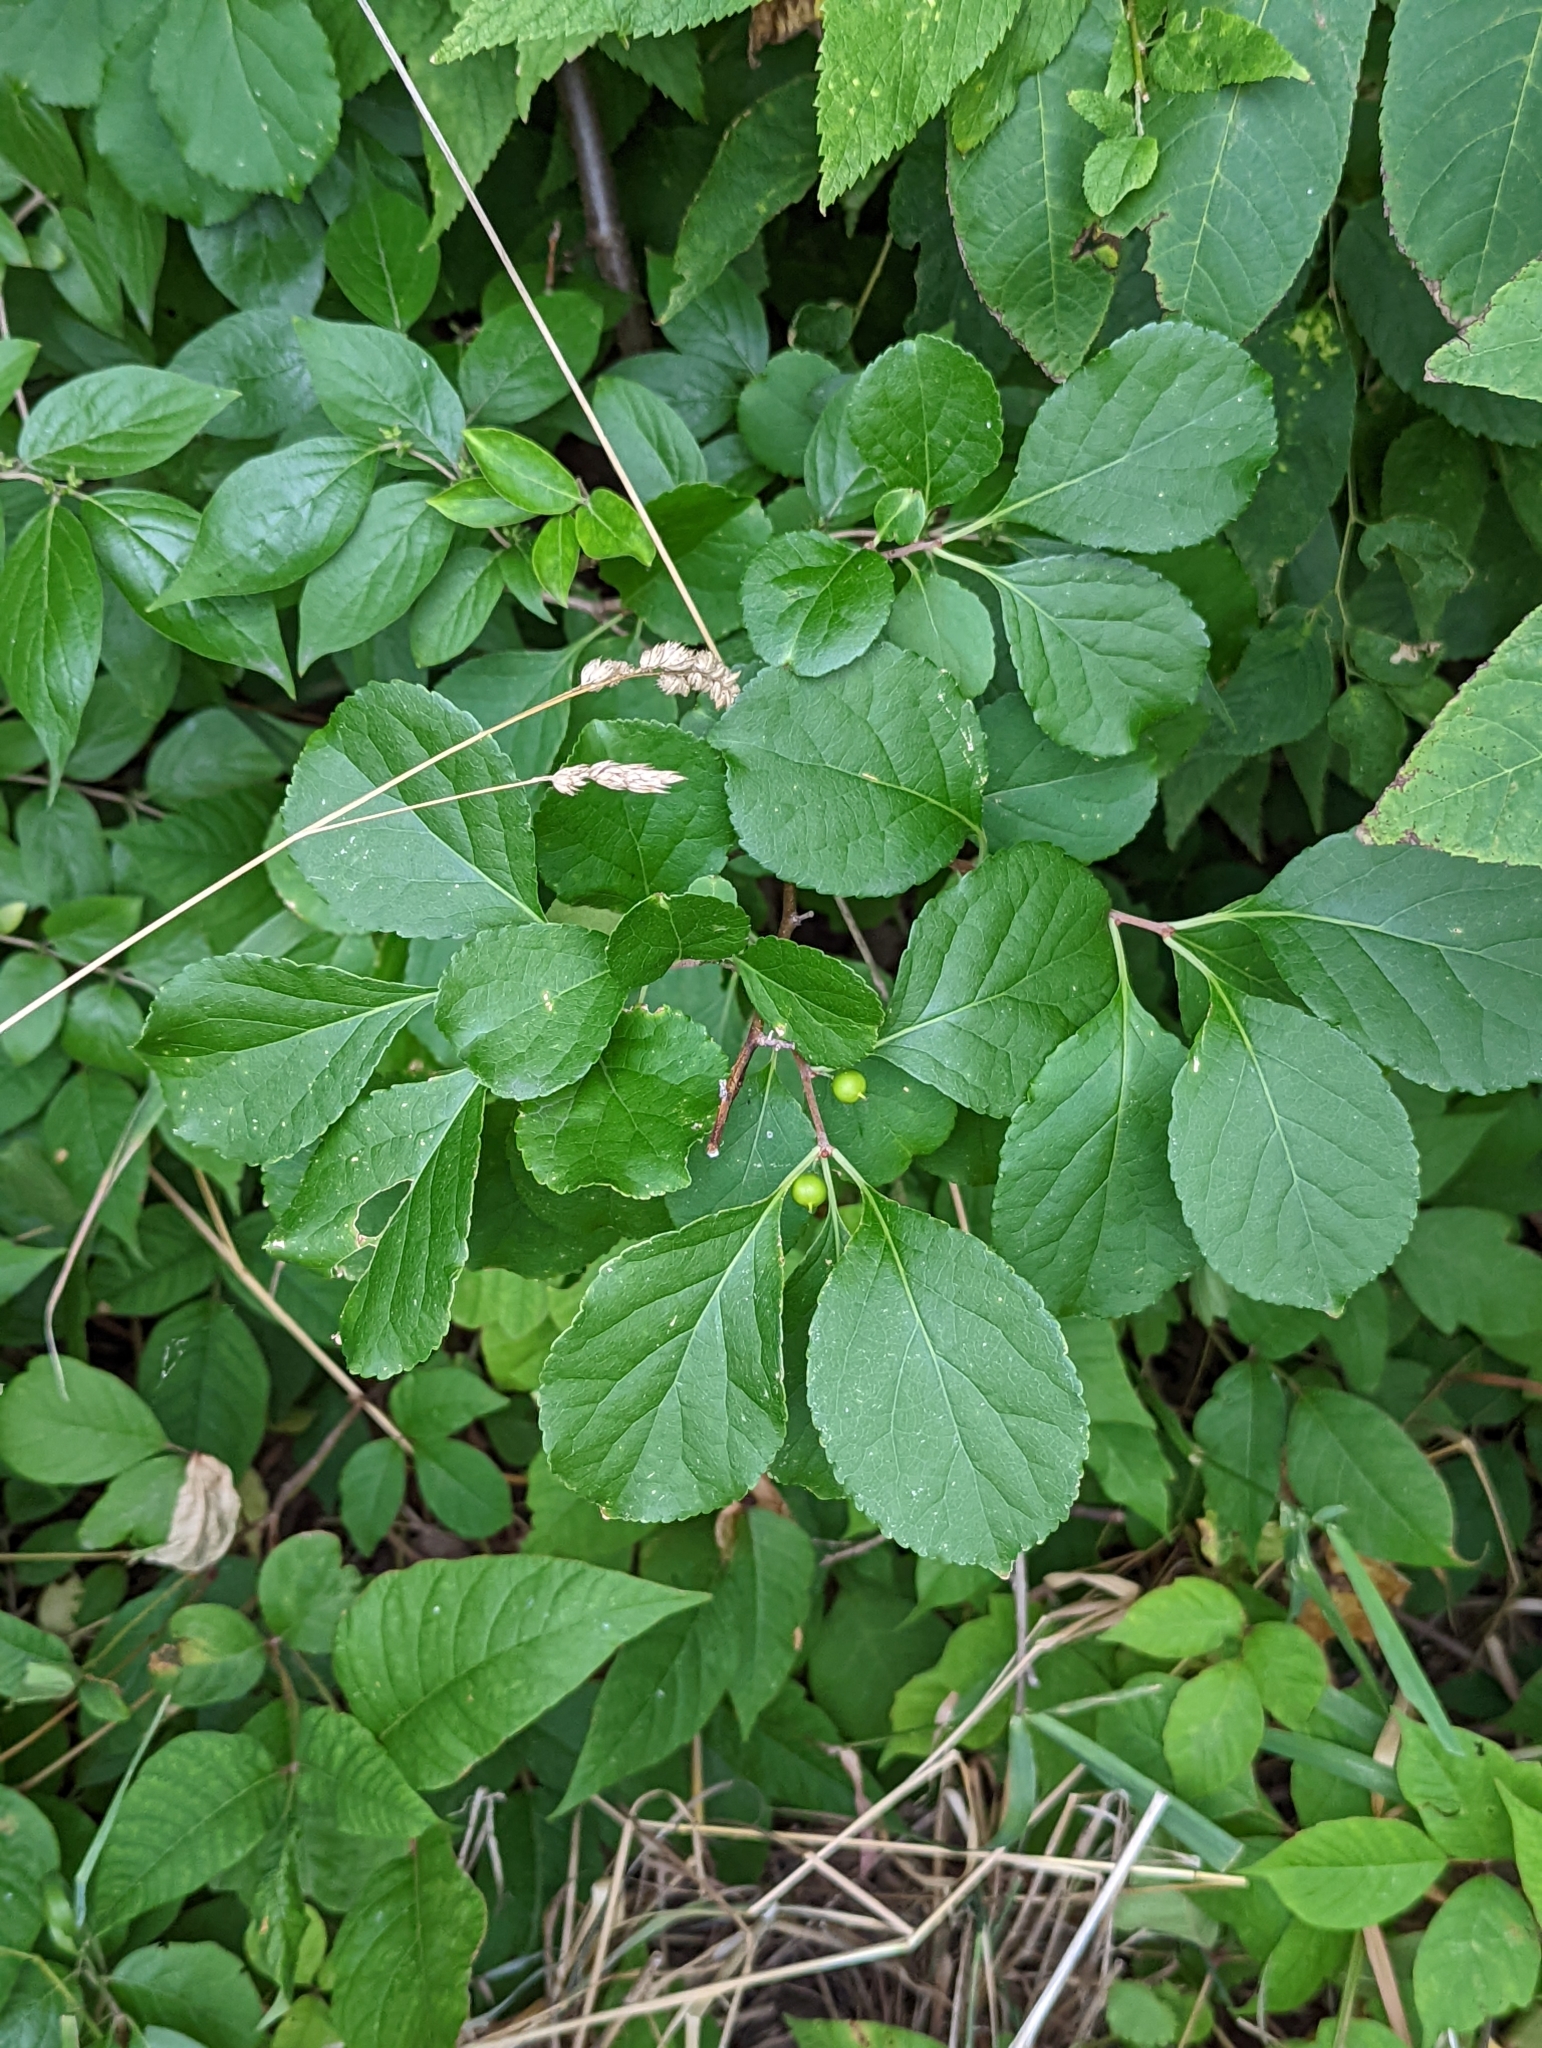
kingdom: Plantae
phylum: Tracheophyta
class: Magnoliopsida
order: Celastrales
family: Celastraceae
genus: Celastrus
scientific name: Celastrus orbiculatus
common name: Oriental bittersweet
